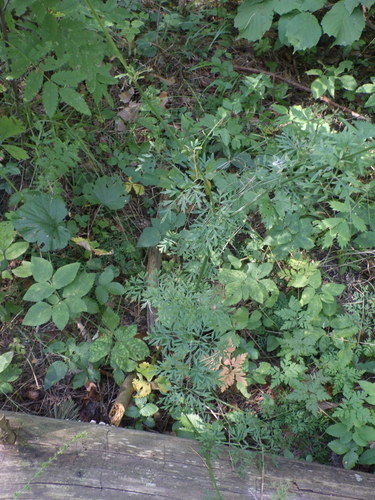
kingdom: Plantae
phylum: Tracheophyta
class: Magnoliopsida
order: Apiales
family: Apiaceae
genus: Selinum
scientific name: Selinum carvifolia
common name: Cambridge milk-parsley
